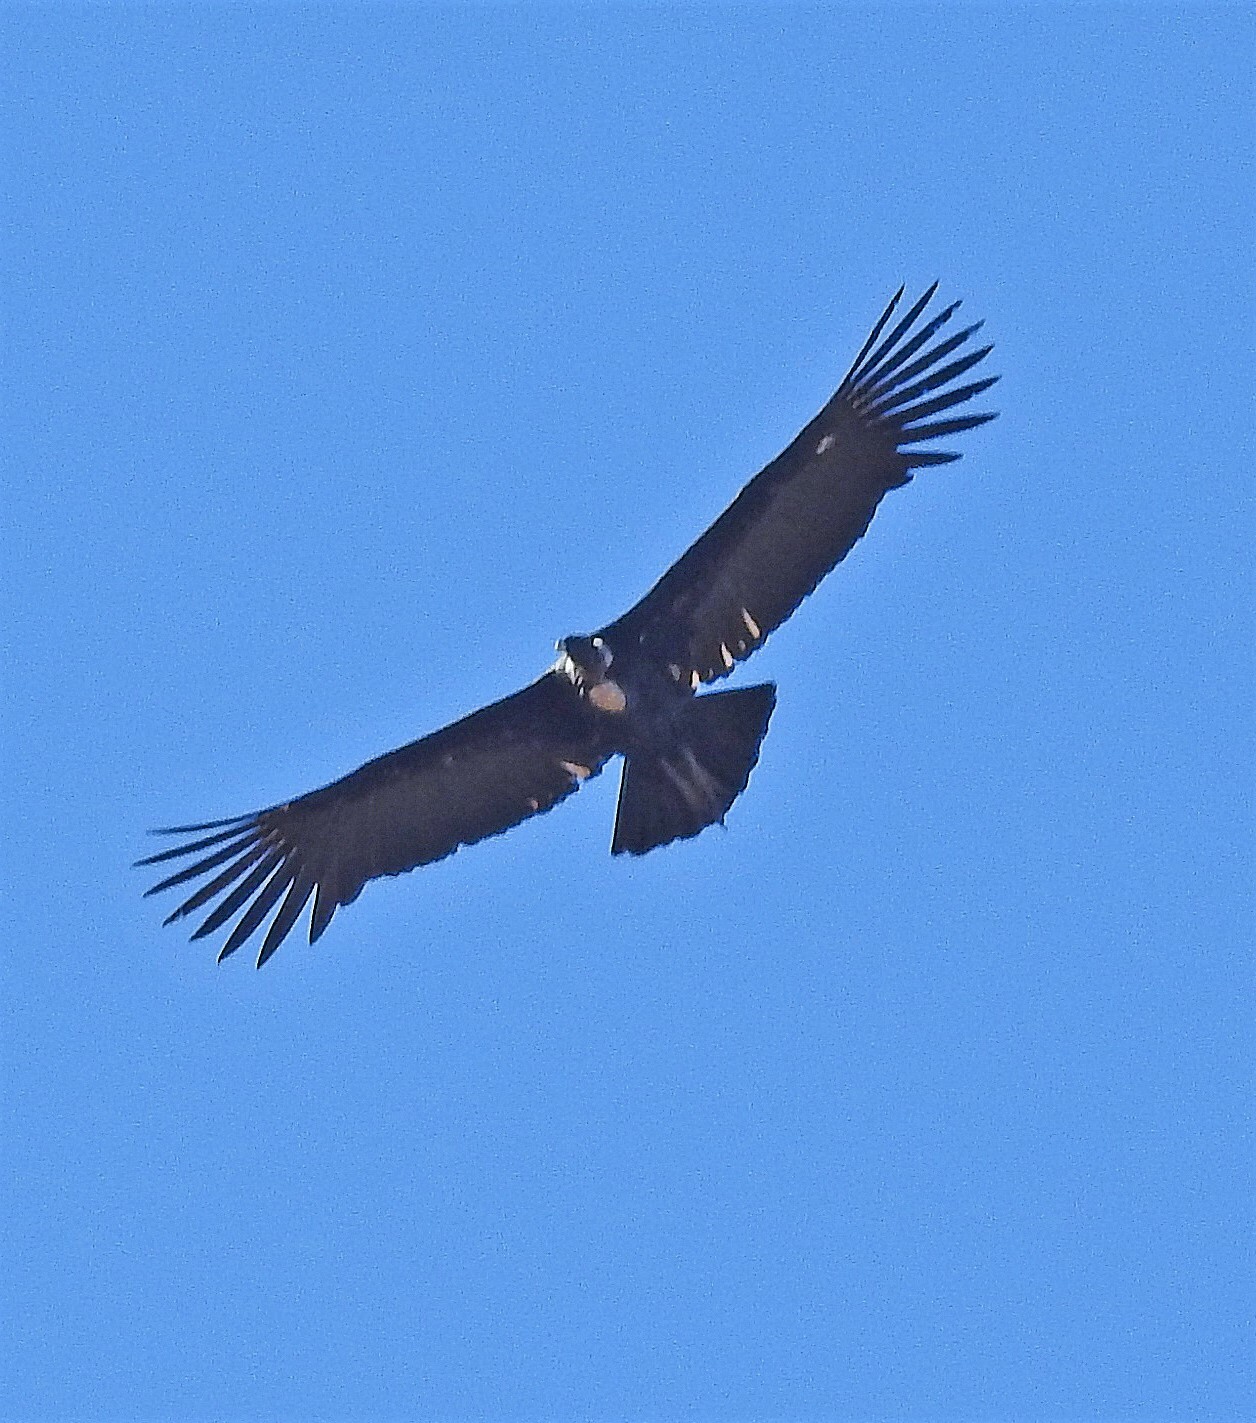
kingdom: Animalia
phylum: Chordata
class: Aves
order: Accipitriformes
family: Cathartidae
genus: Vultur
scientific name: Vultur gryphus
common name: Andean condor
